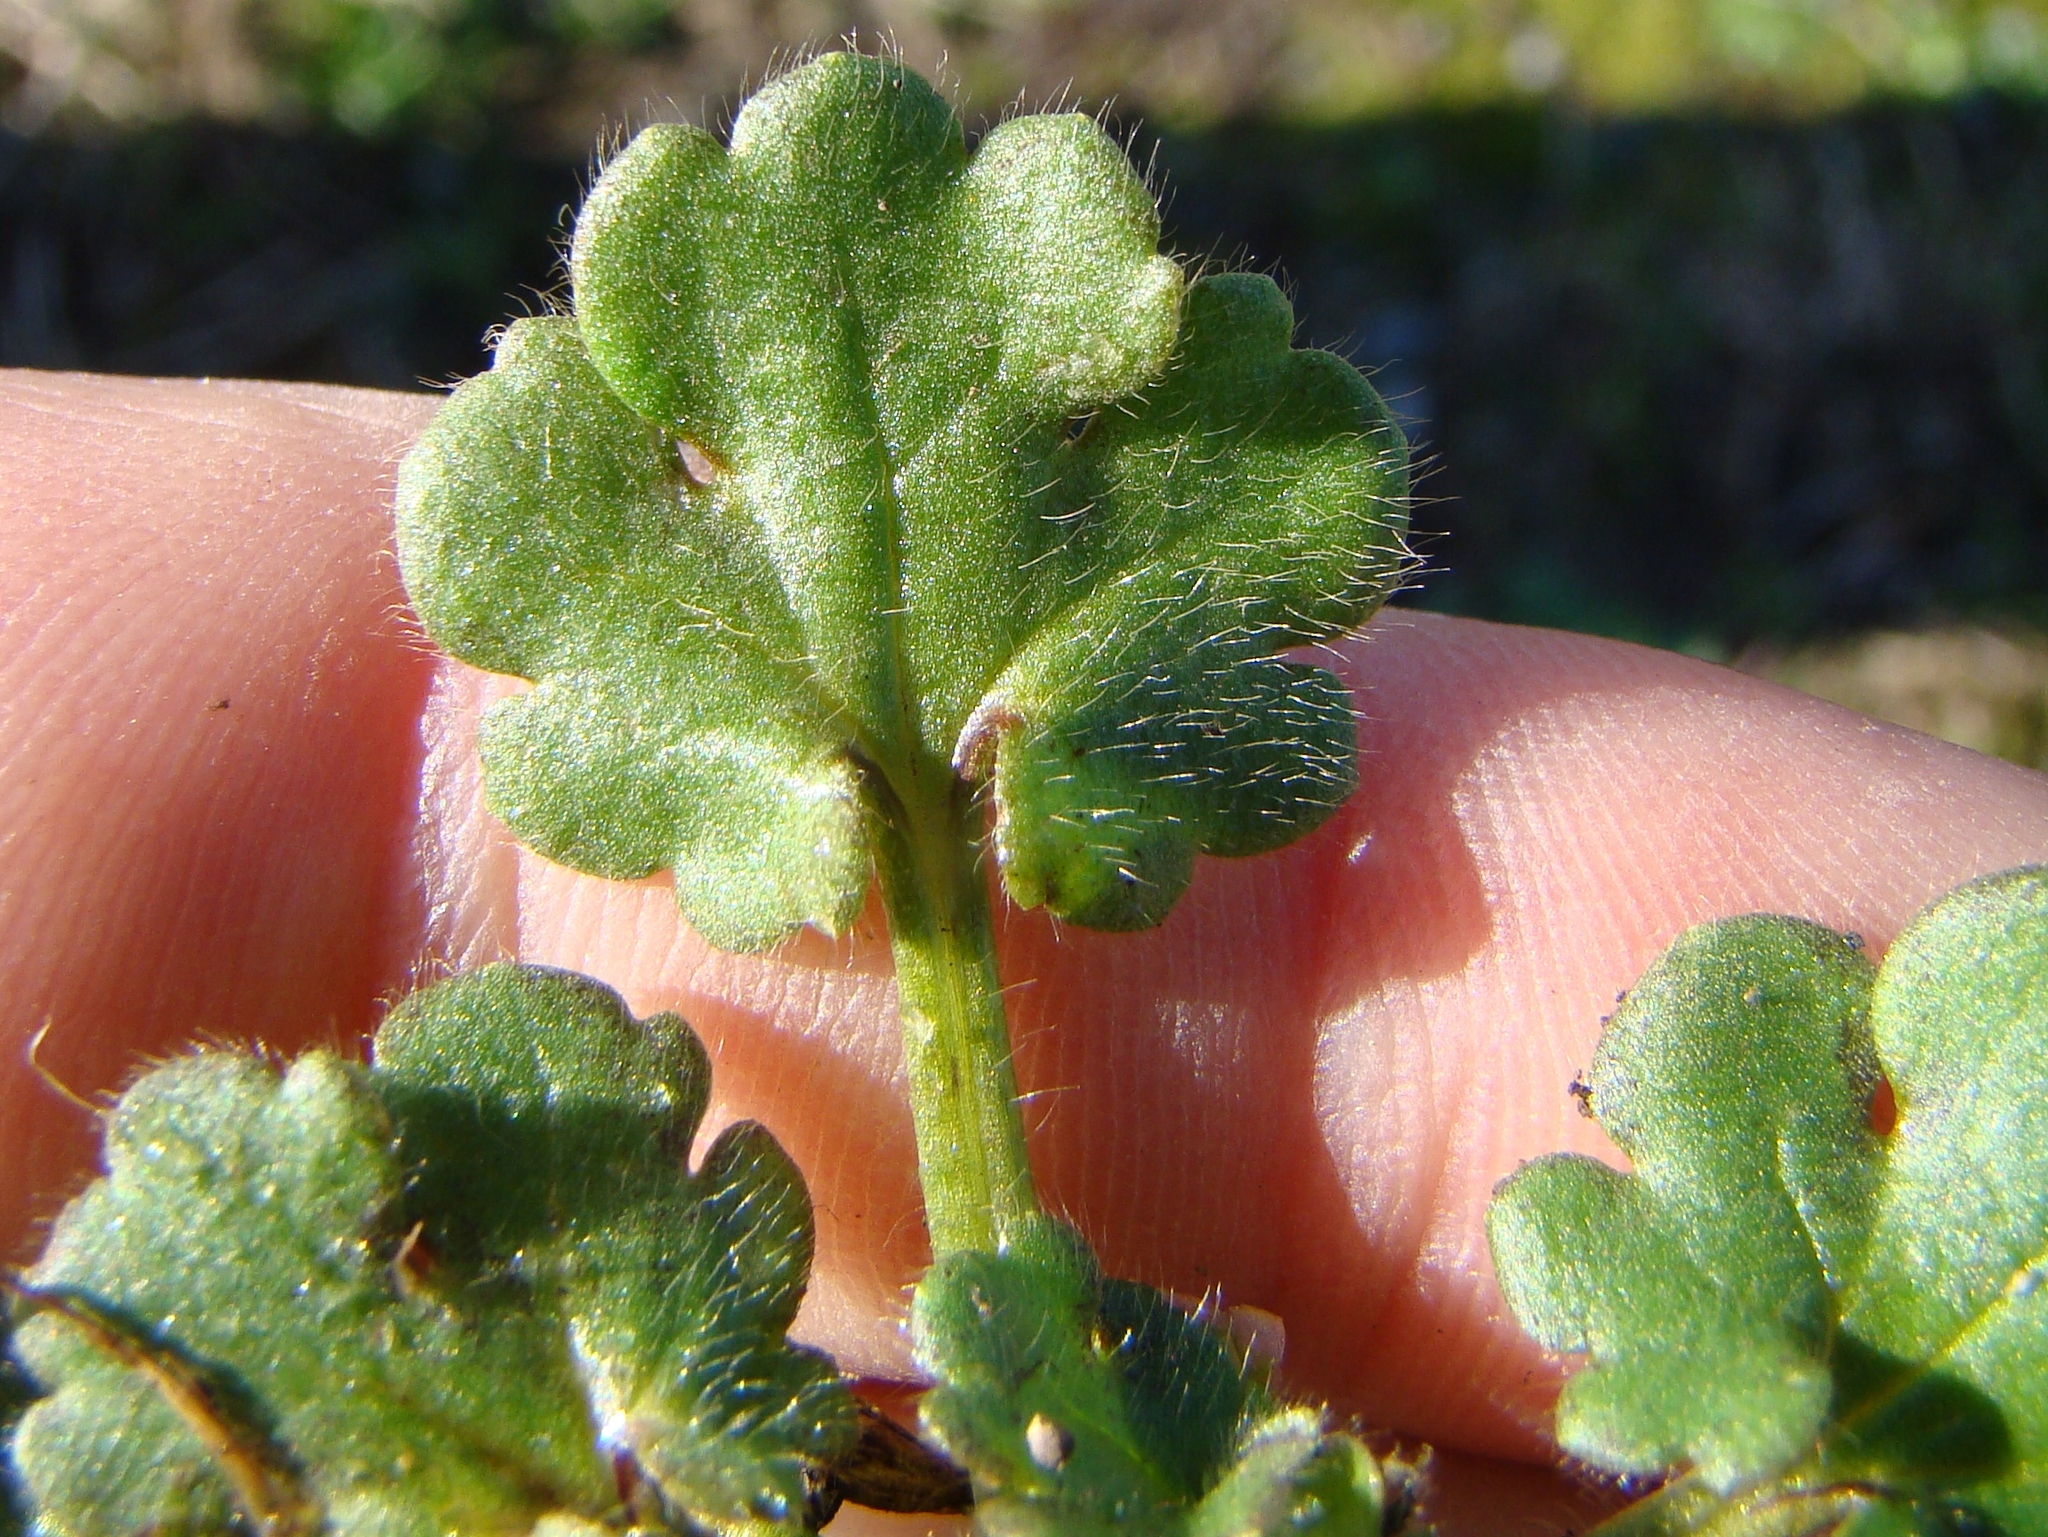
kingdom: Plantae
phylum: Tracheophyta
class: Magnoliopsida
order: Ranunculales
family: Ranunculaceae
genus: Ranunculus
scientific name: Ranunculus
